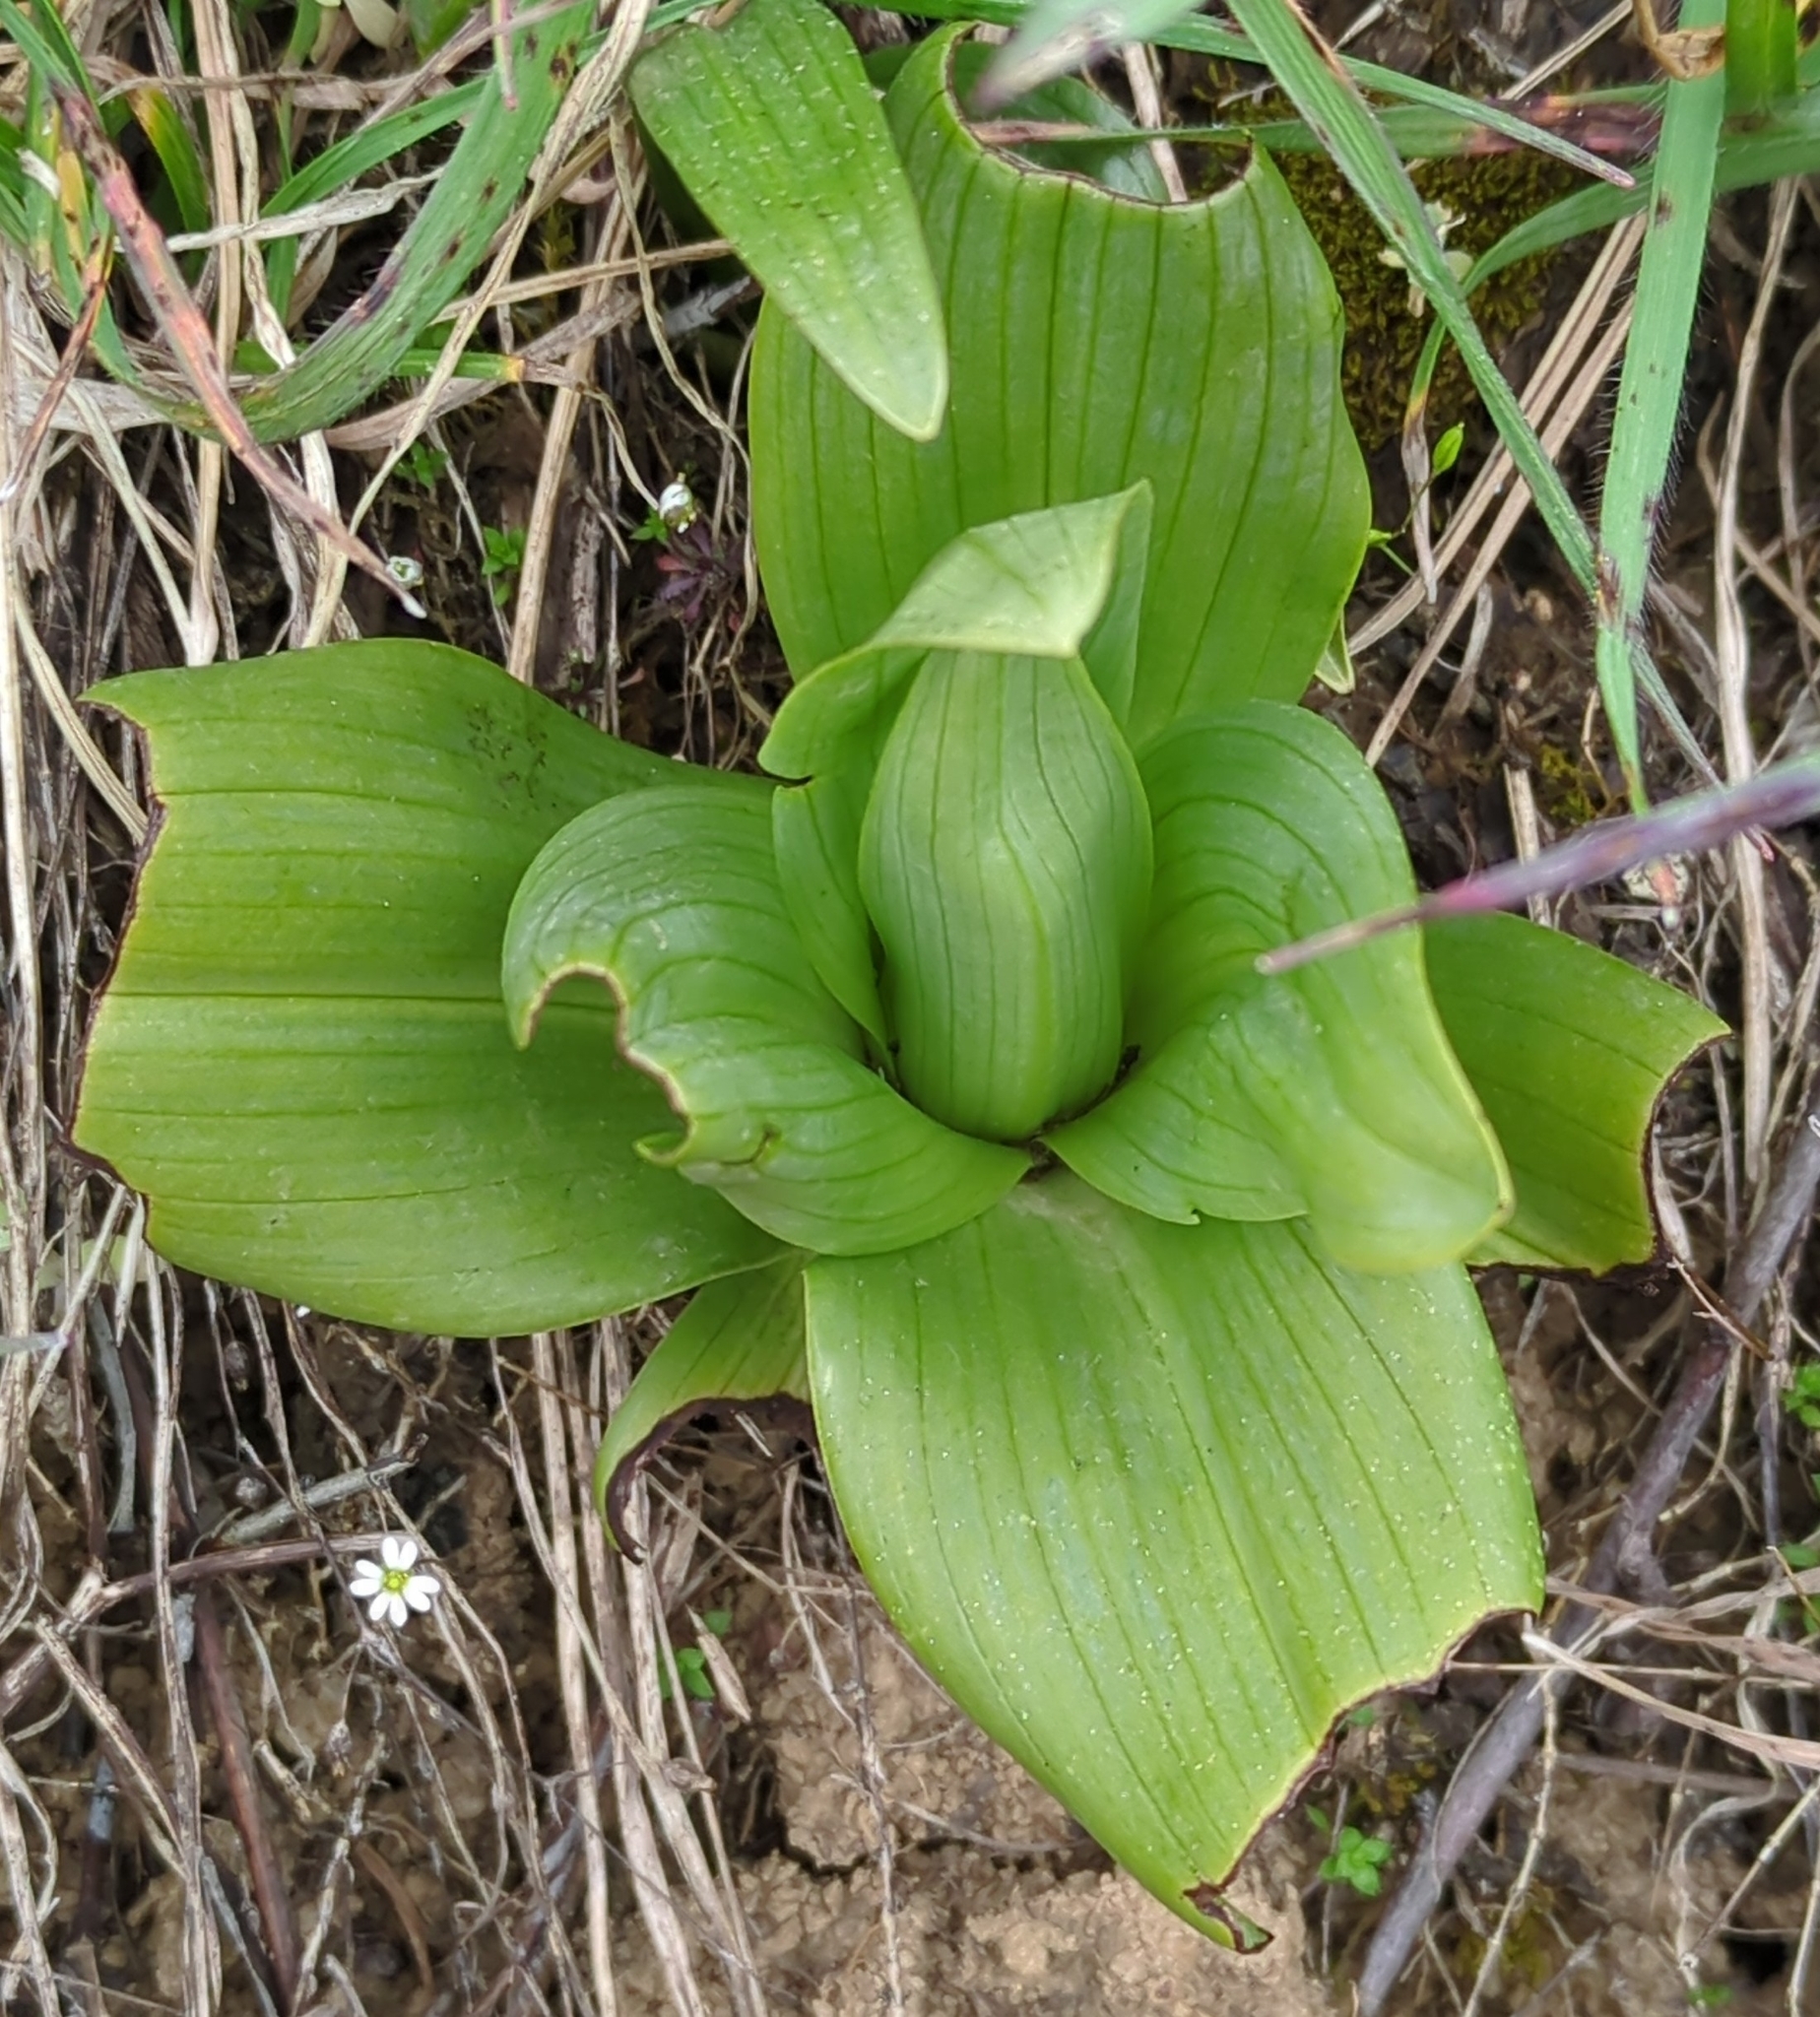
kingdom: Plantae
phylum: Tracheophyta
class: Liliopsida
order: Asparagales
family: Orchidaceae
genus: Himantoglossum
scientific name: Himantoglossum hircinum
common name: Lizard orchid
